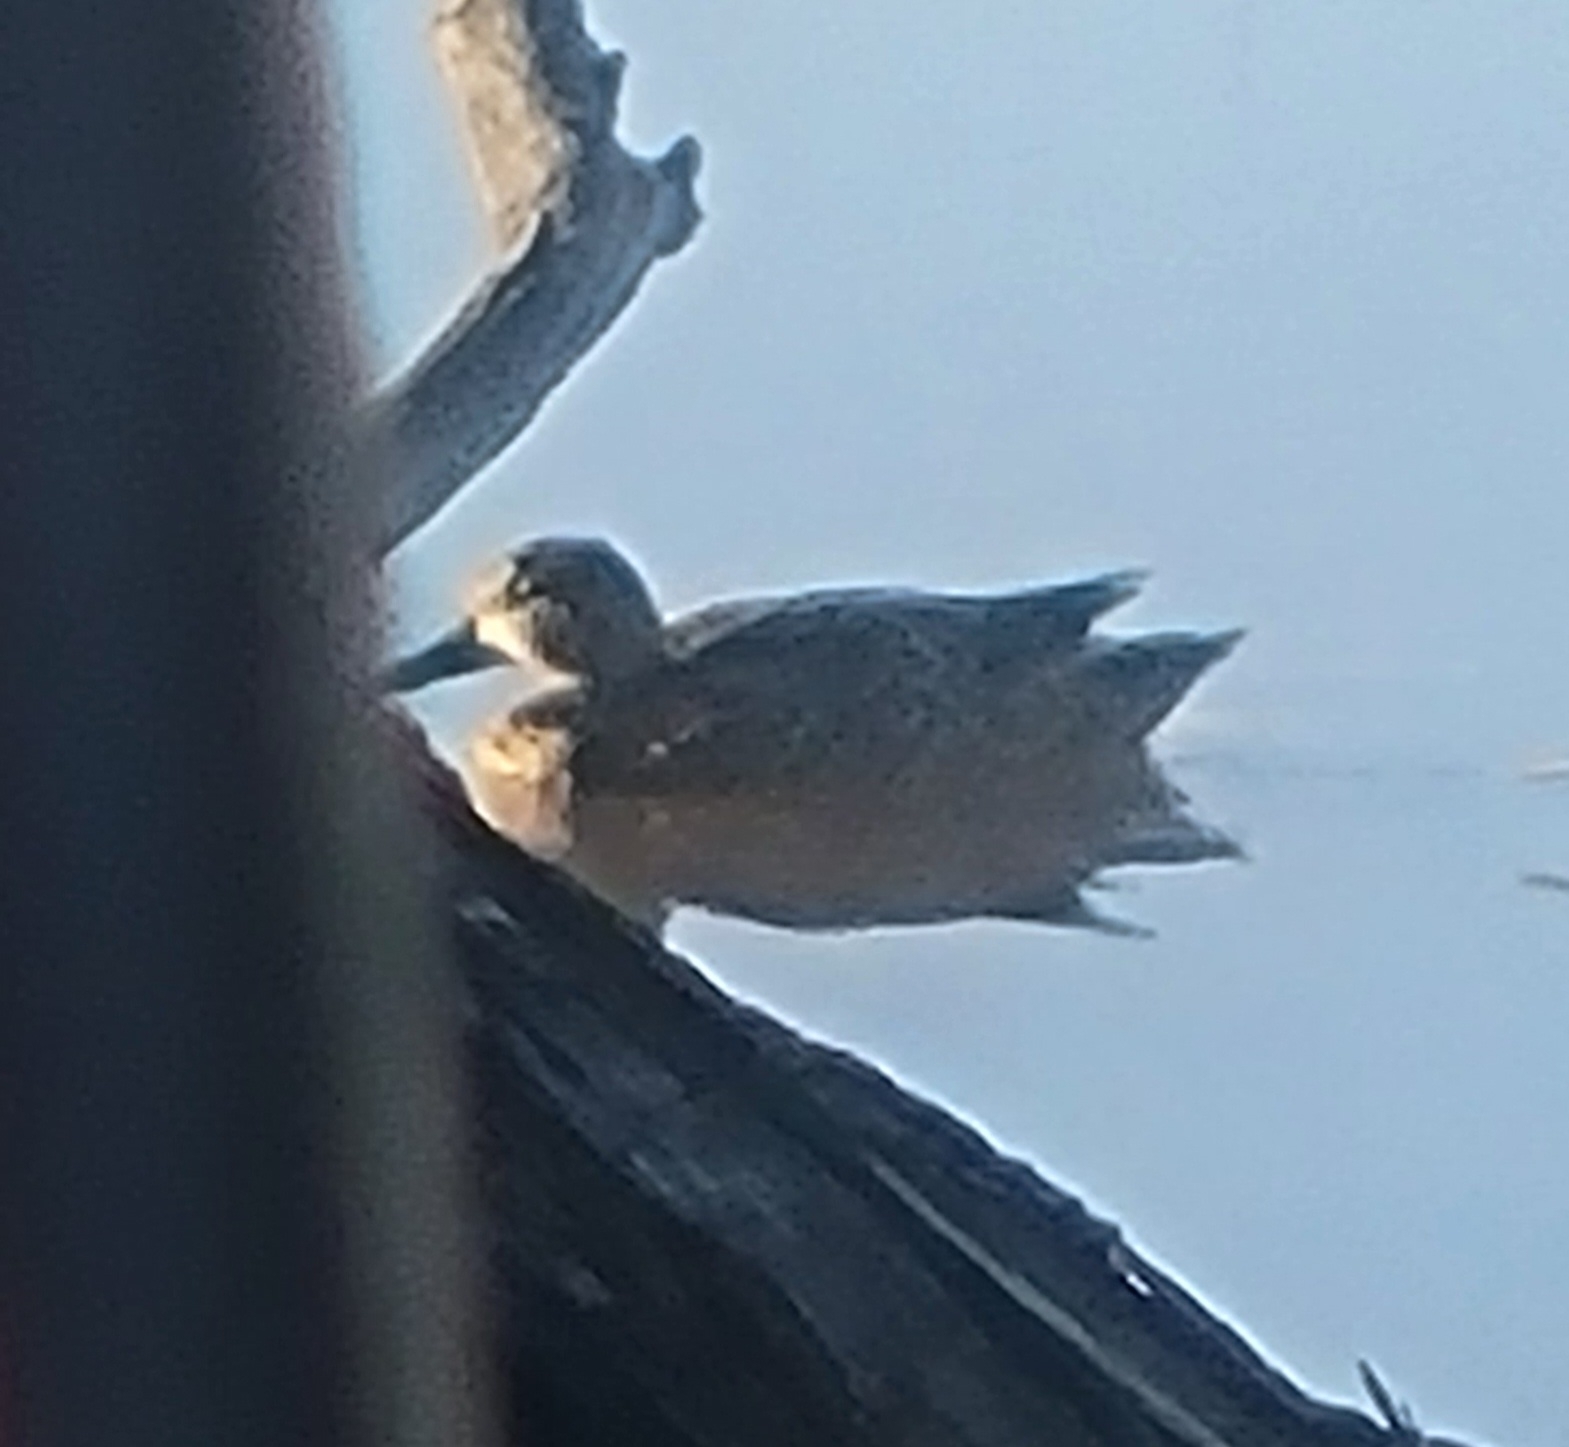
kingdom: Animalia
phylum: Chordata
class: Aves
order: Anseriformes
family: Anatidae
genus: Spatula
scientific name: Spatula discors
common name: Blue-winged teal
